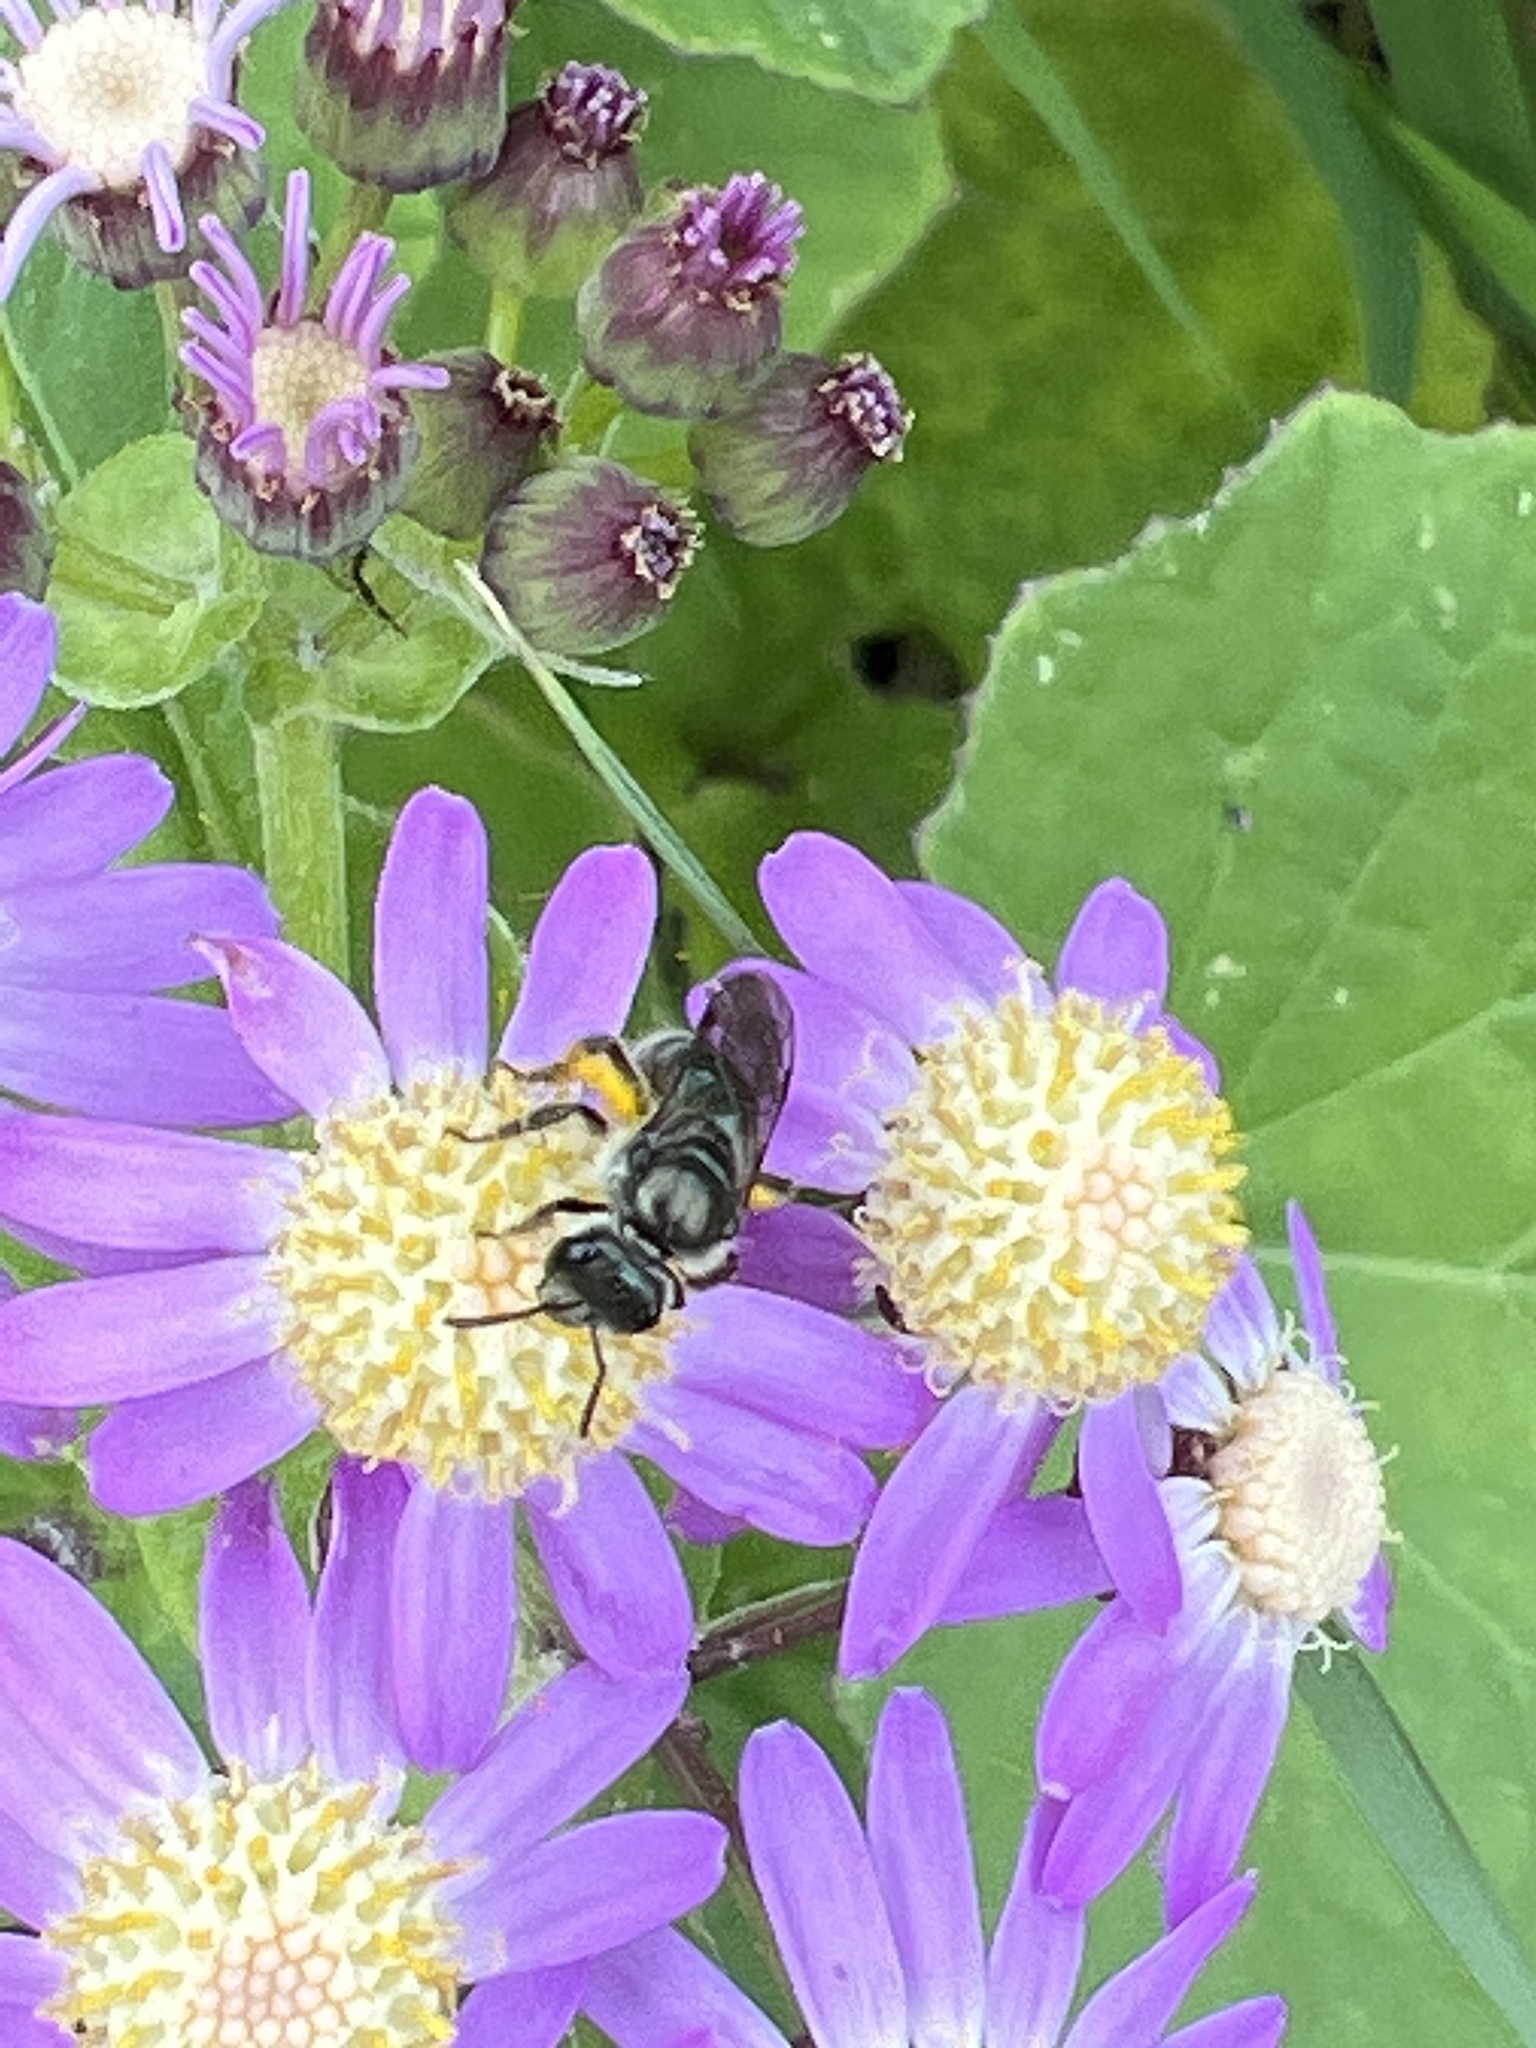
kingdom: Animalia
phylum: Arthropoda
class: Insecta
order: Hymenoptera
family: Halictidae
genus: Lasioglossum
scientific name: Lasioglossum viride
